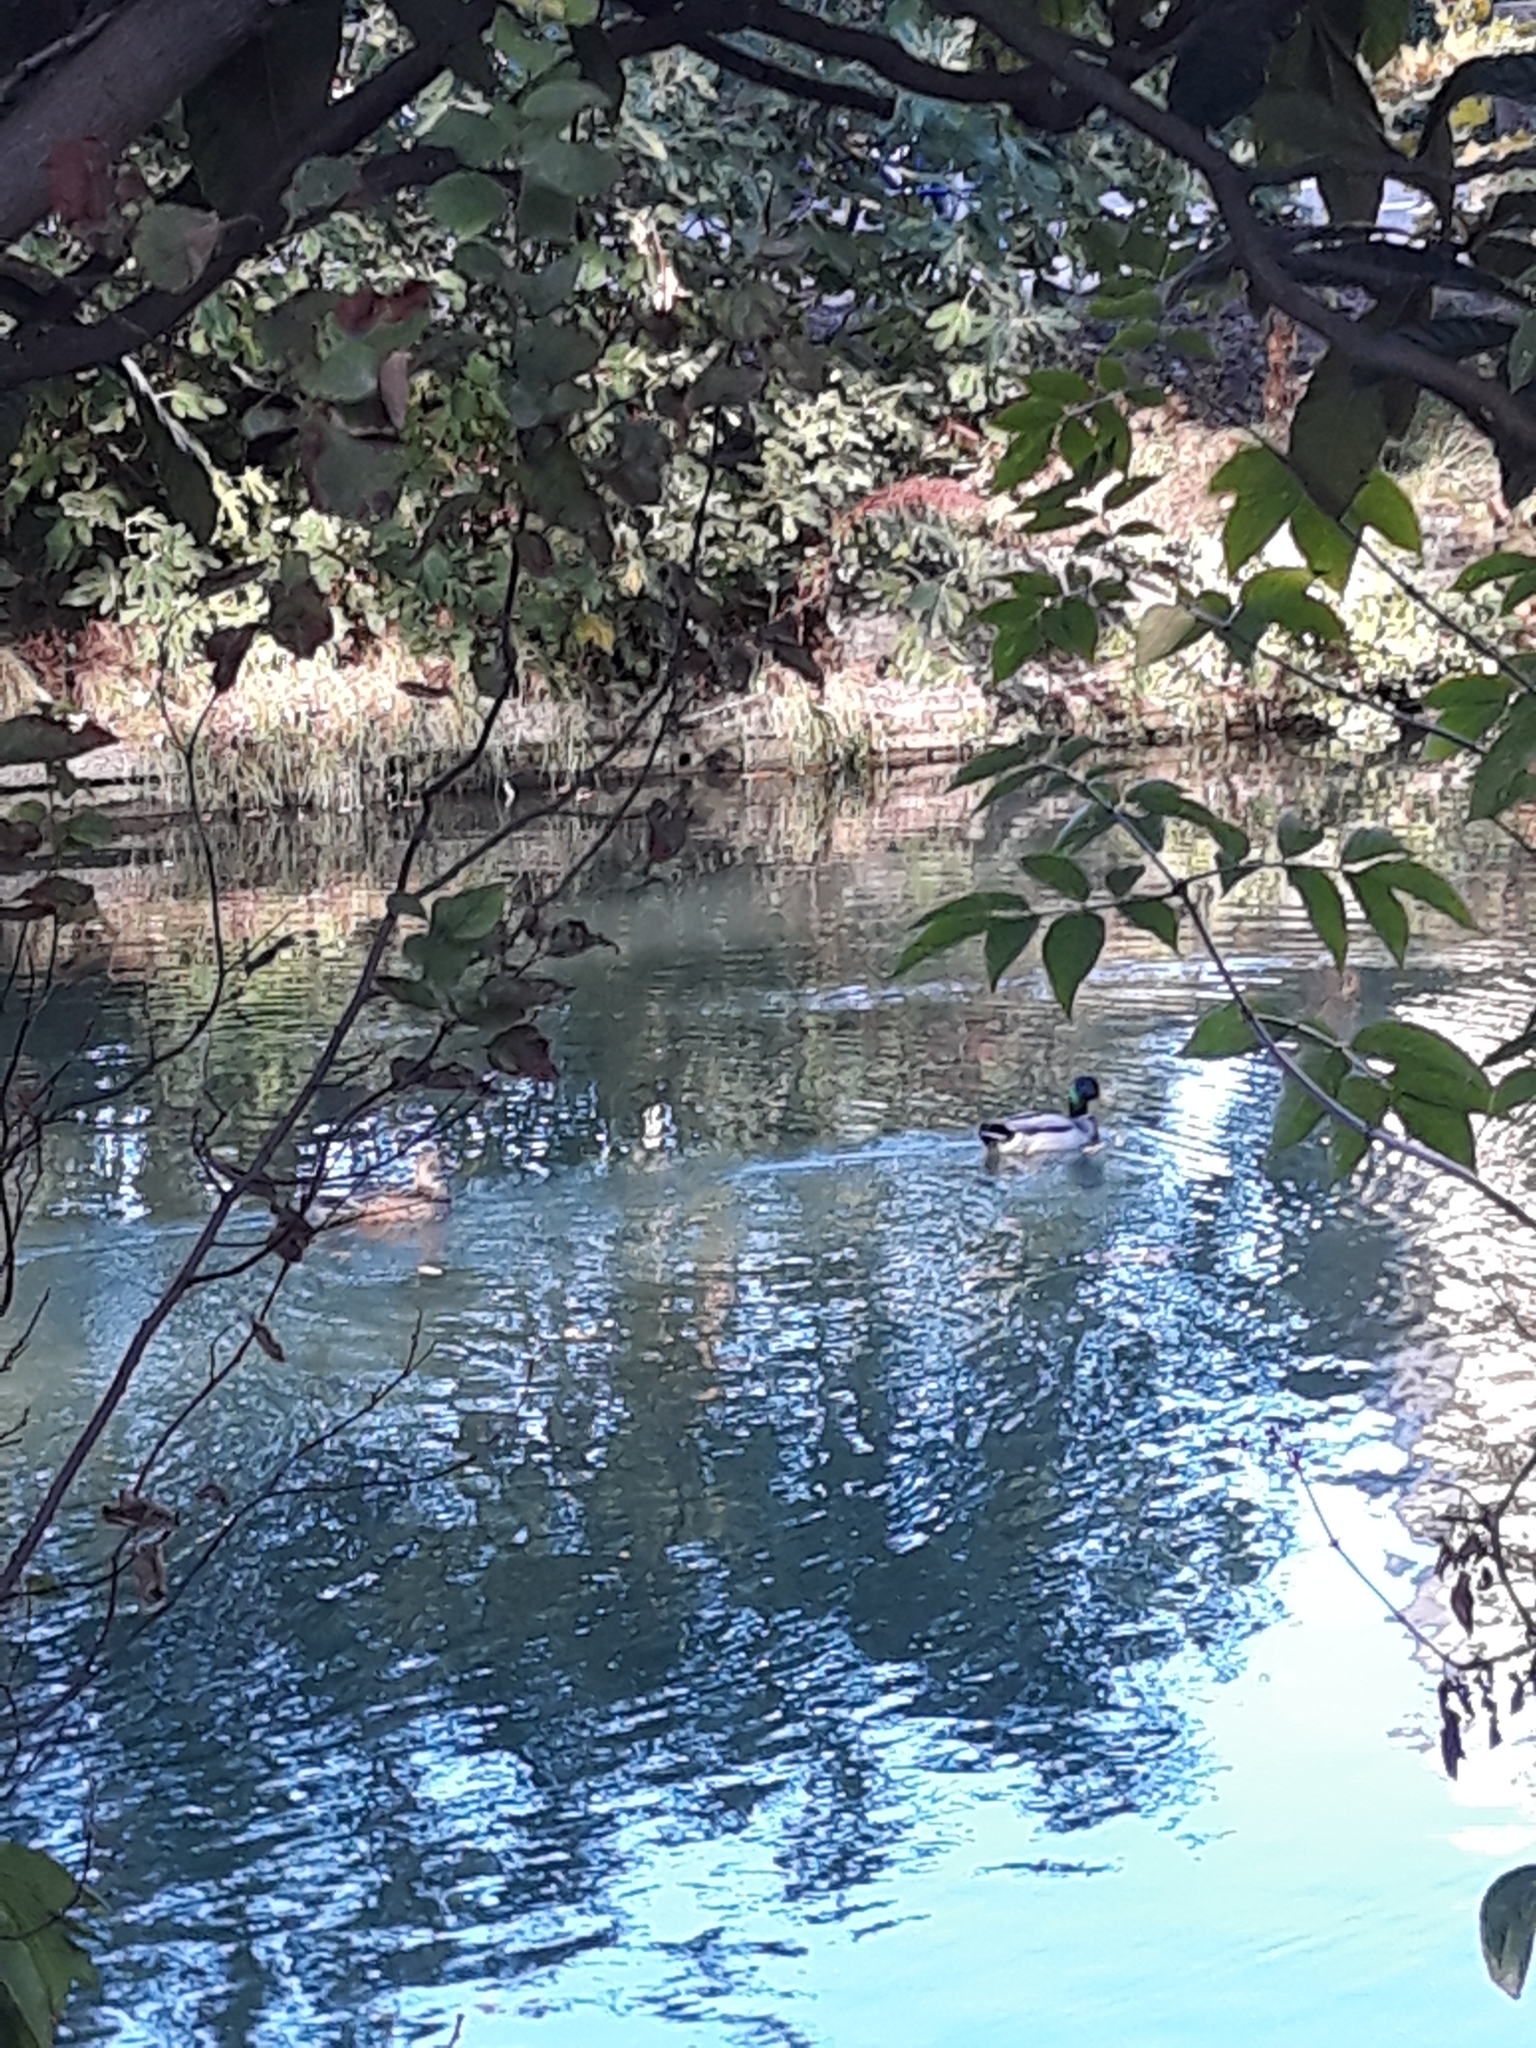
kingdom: Animalia
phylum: Chordata
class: Aves
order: Anseriformes
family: Anatidae
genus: Anas
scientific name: Anas platyrhynchos
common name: Mallard
